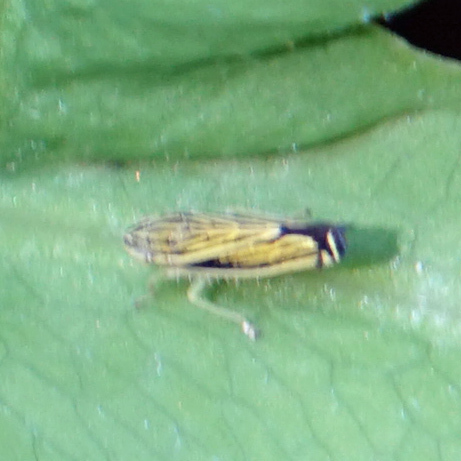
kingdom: Animalia
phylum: Arthropoda
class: Insecta
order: Hemiptera
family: Cicadellidae
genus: Sibovia
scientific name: Sibovia occatoria
